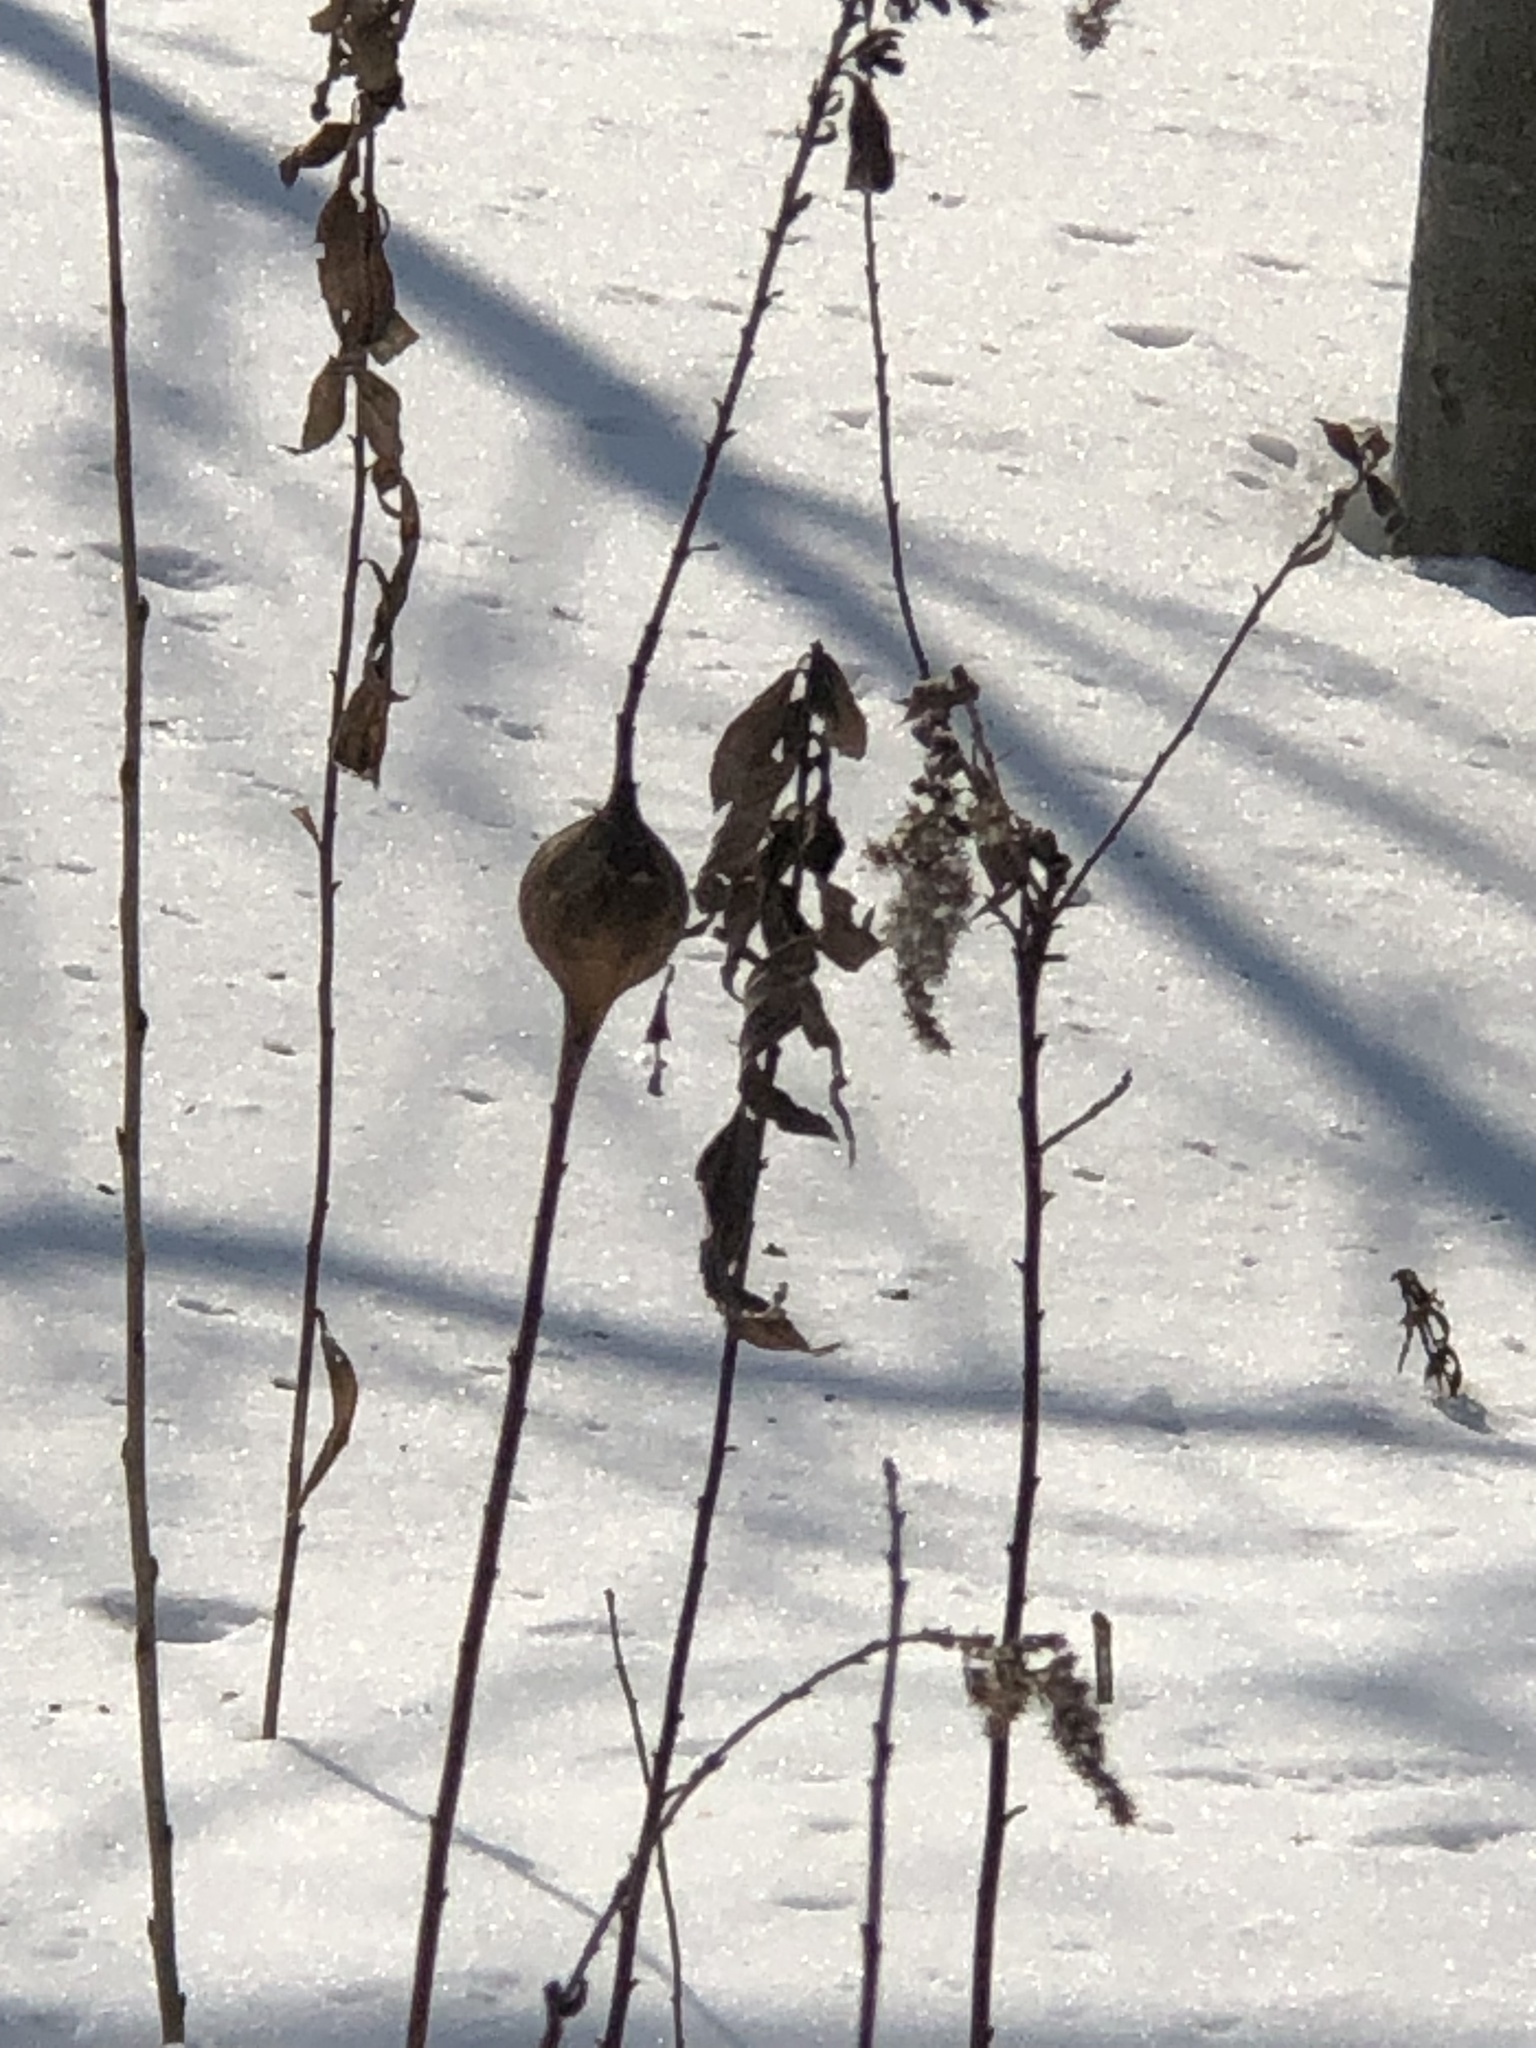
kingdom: Animalia
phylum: Arthropoda
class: Insecta
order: Diptera
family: Tephritidae
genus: Eurosta
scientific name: Eurosta solidaginis
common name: Goldenrod gall fly
